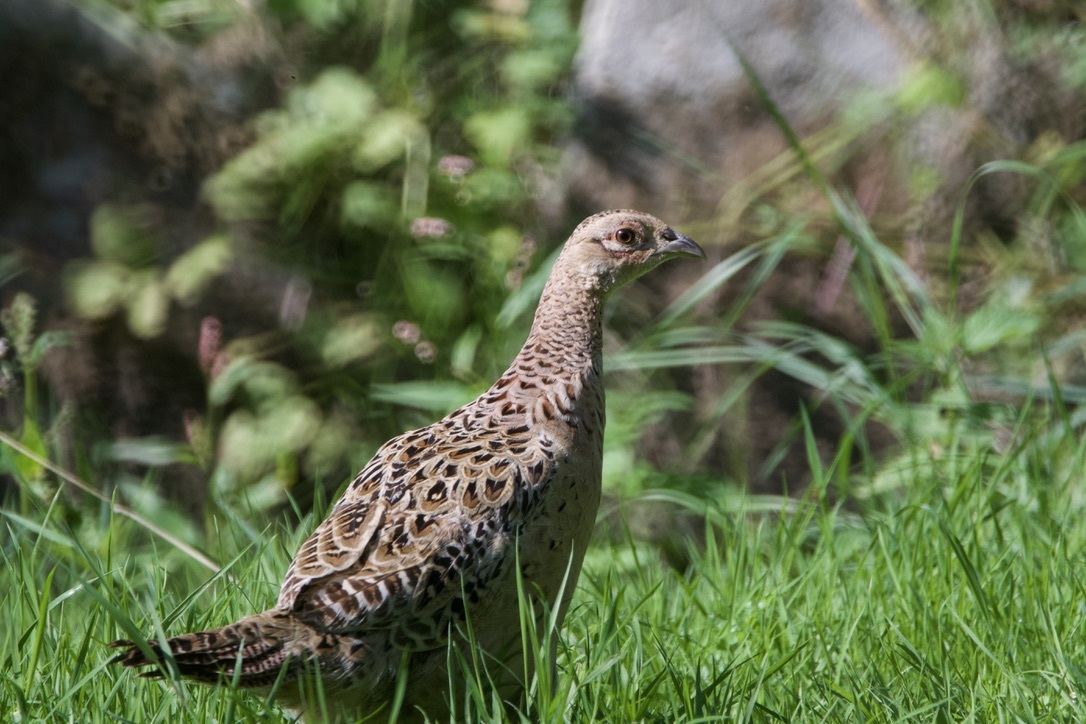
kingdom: Animalia
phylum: Chordata
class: Aves
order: Galliformes
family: Phasianidae
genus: Phasianus
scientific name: Phasianus colchicus
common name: Common pheasant
